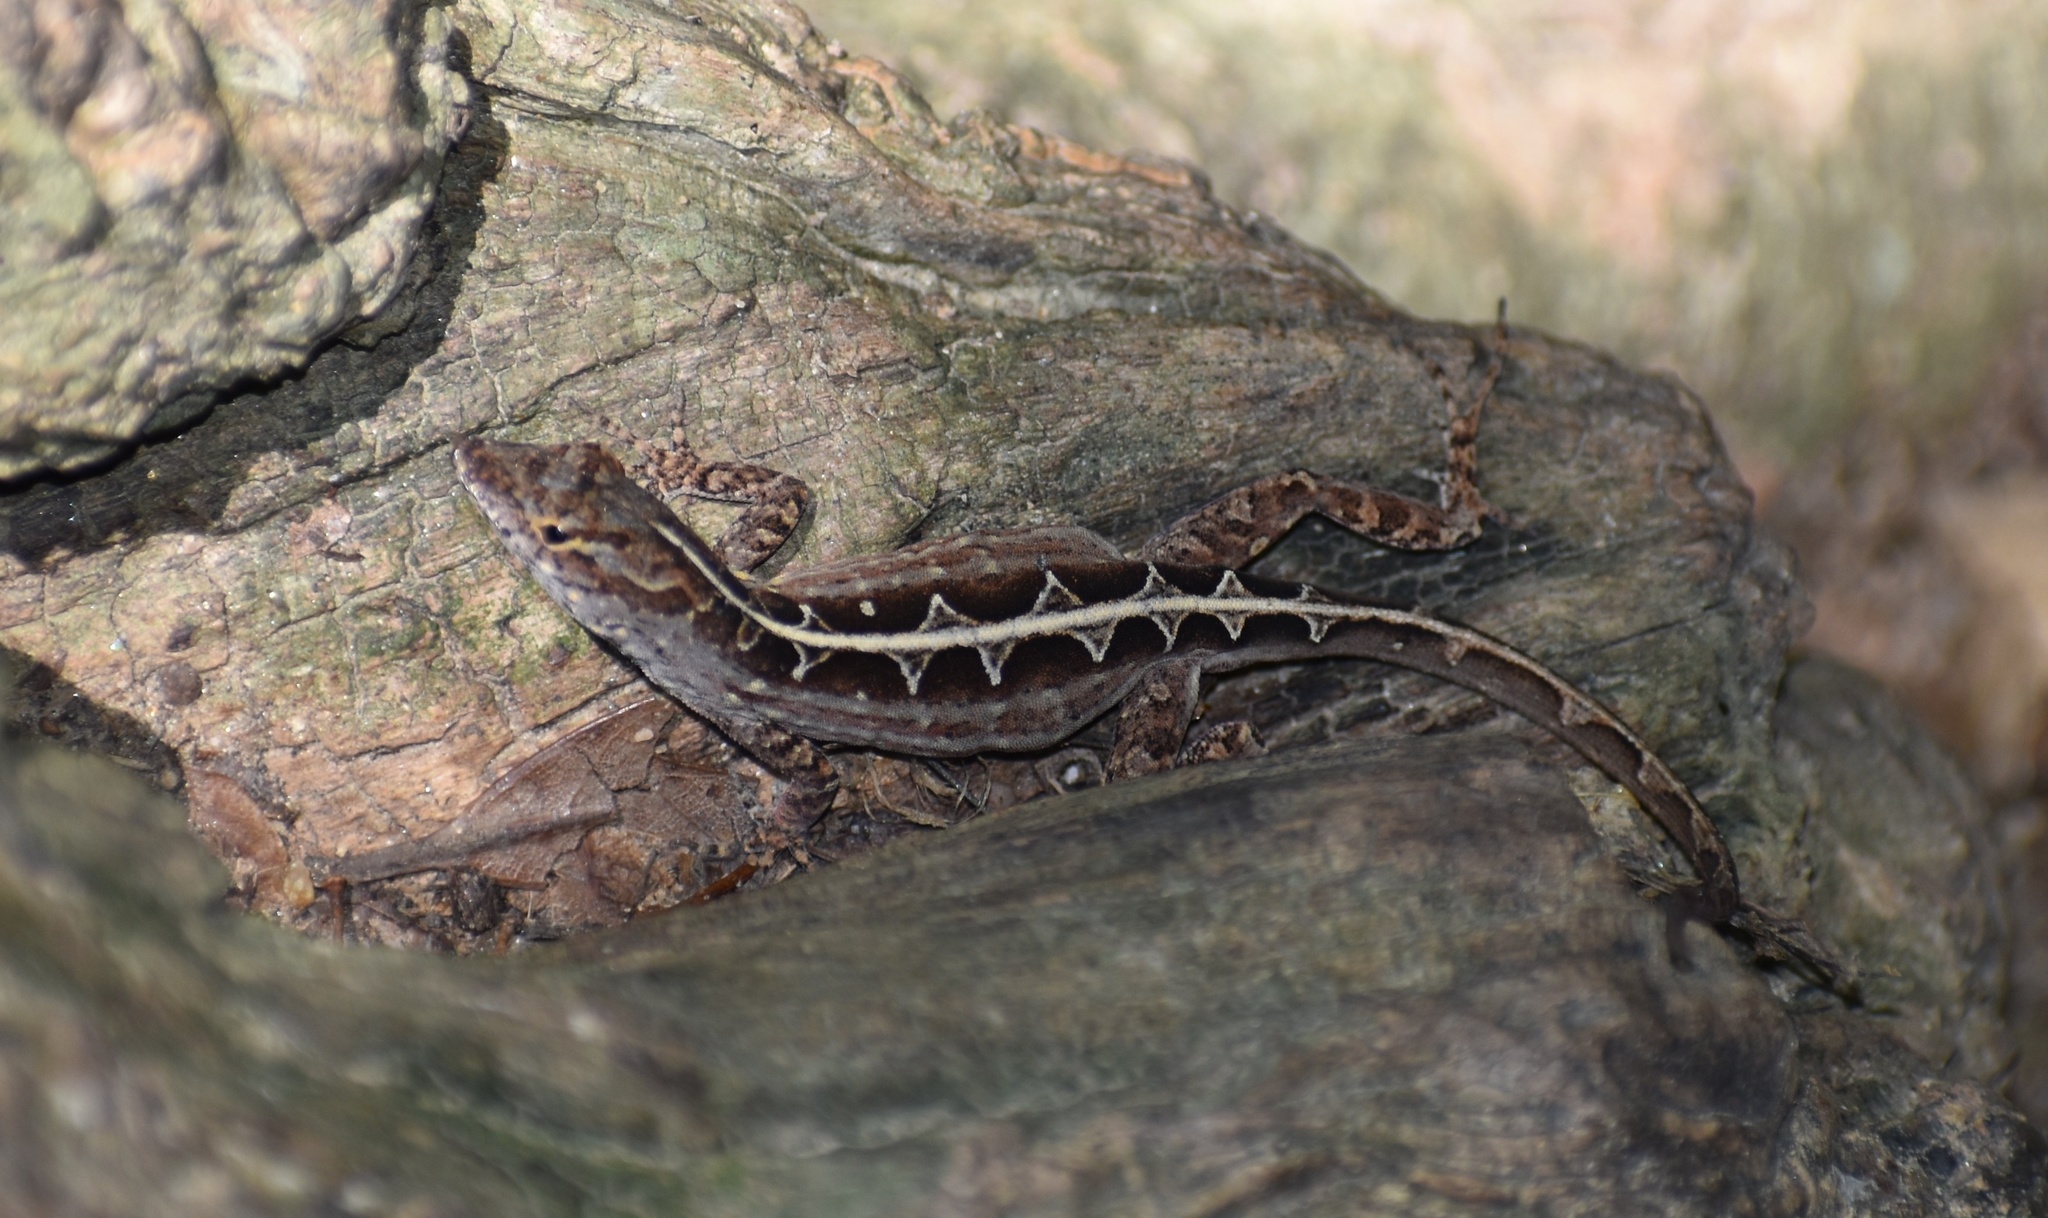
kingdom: Animalia
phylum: Chordata
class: Squamata
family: Dactyloidae
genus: Anolis
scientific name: Anolis sagrei
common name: Brown anole
